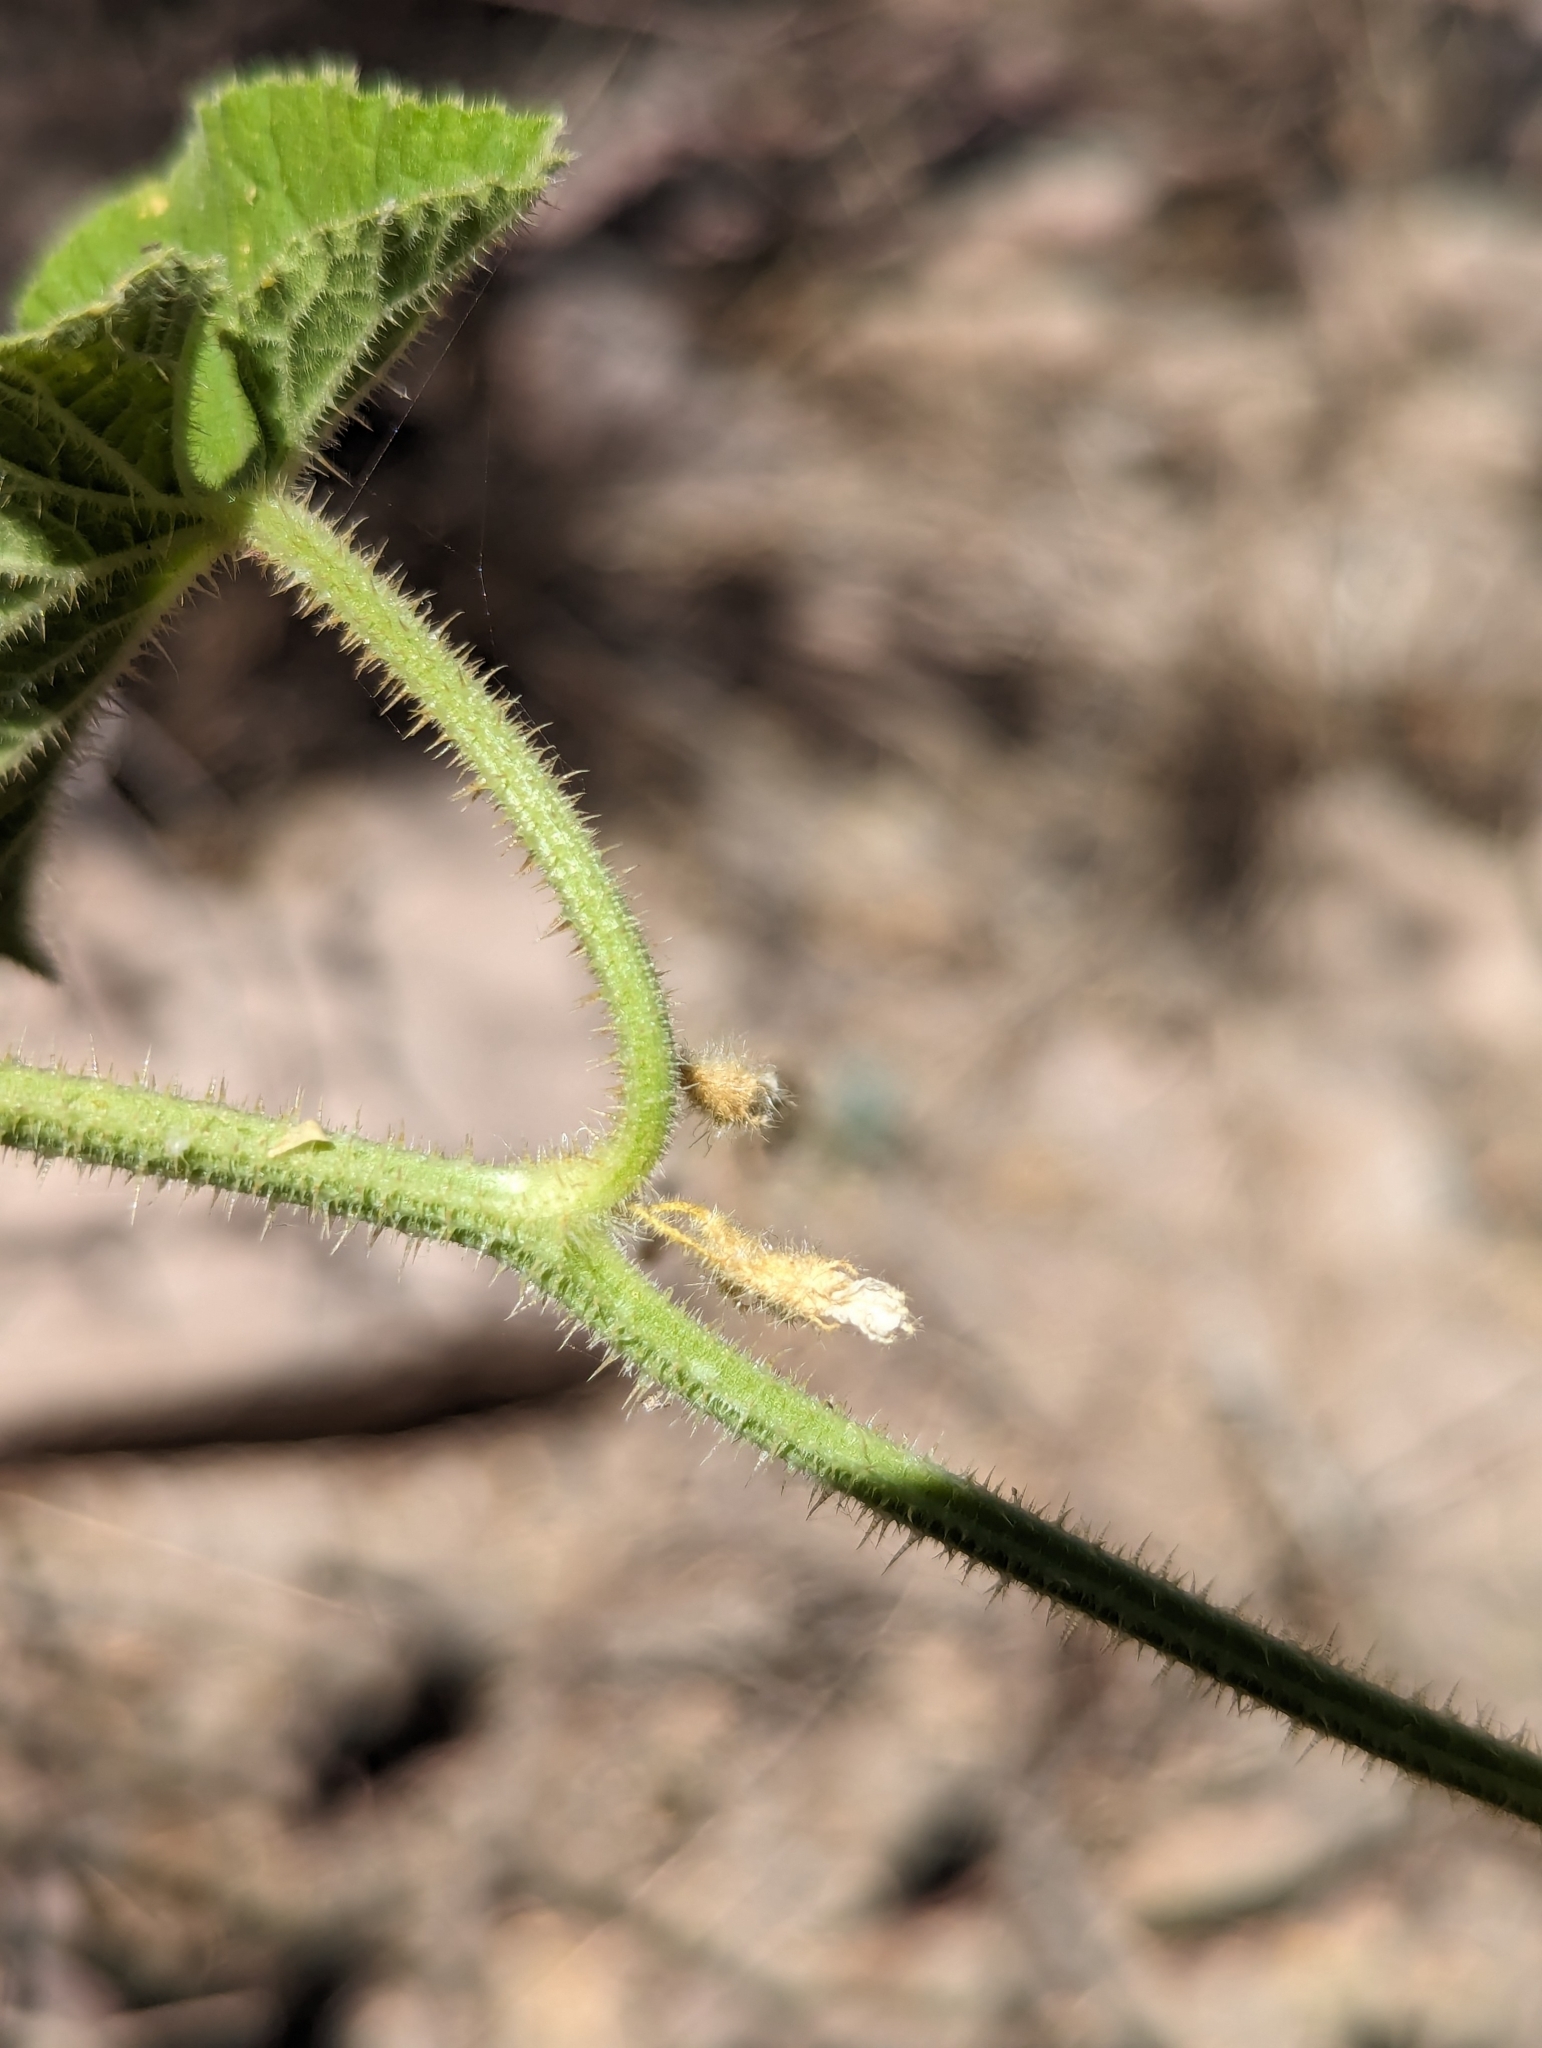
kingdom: Plantae
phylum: Tracheophyta
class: Magnoliopsida
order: Cucurbitales
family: Cucurbitaceae
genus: Cucumis
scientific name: Cucumis dipsaceus
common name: Hedgehog gourd
